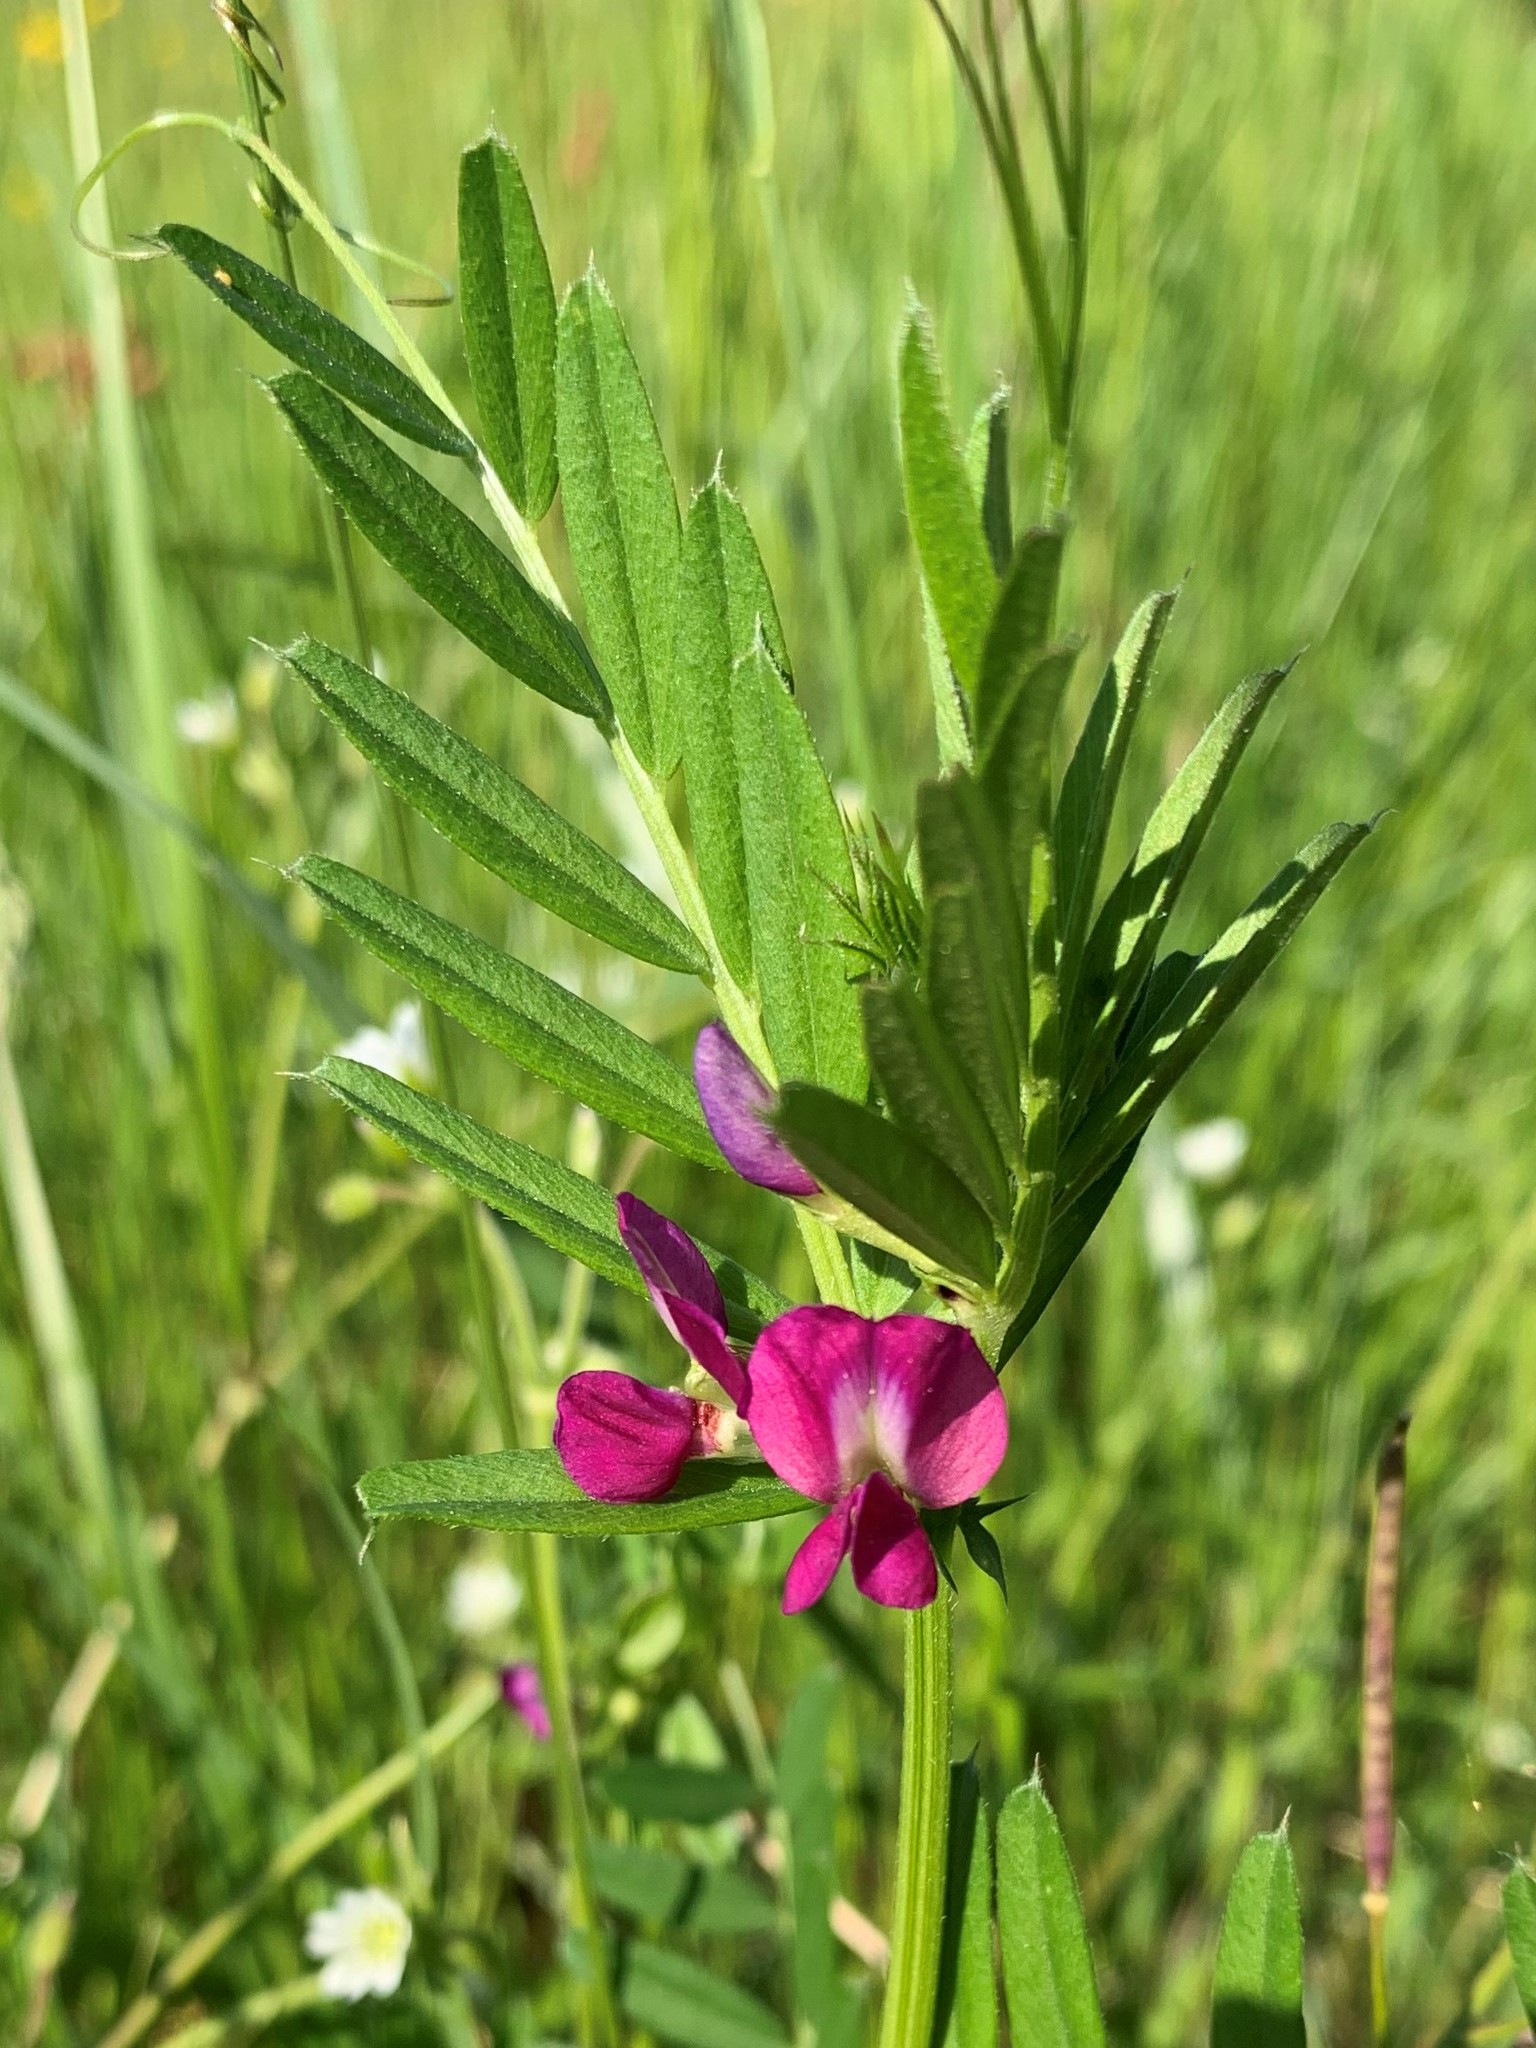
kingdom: Plantae
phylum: Tracheophyta
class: Magnoliopsida
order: Fabales
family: Fabaceae
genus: Vicia
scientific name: Vicia sativa
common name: Garden vetch
